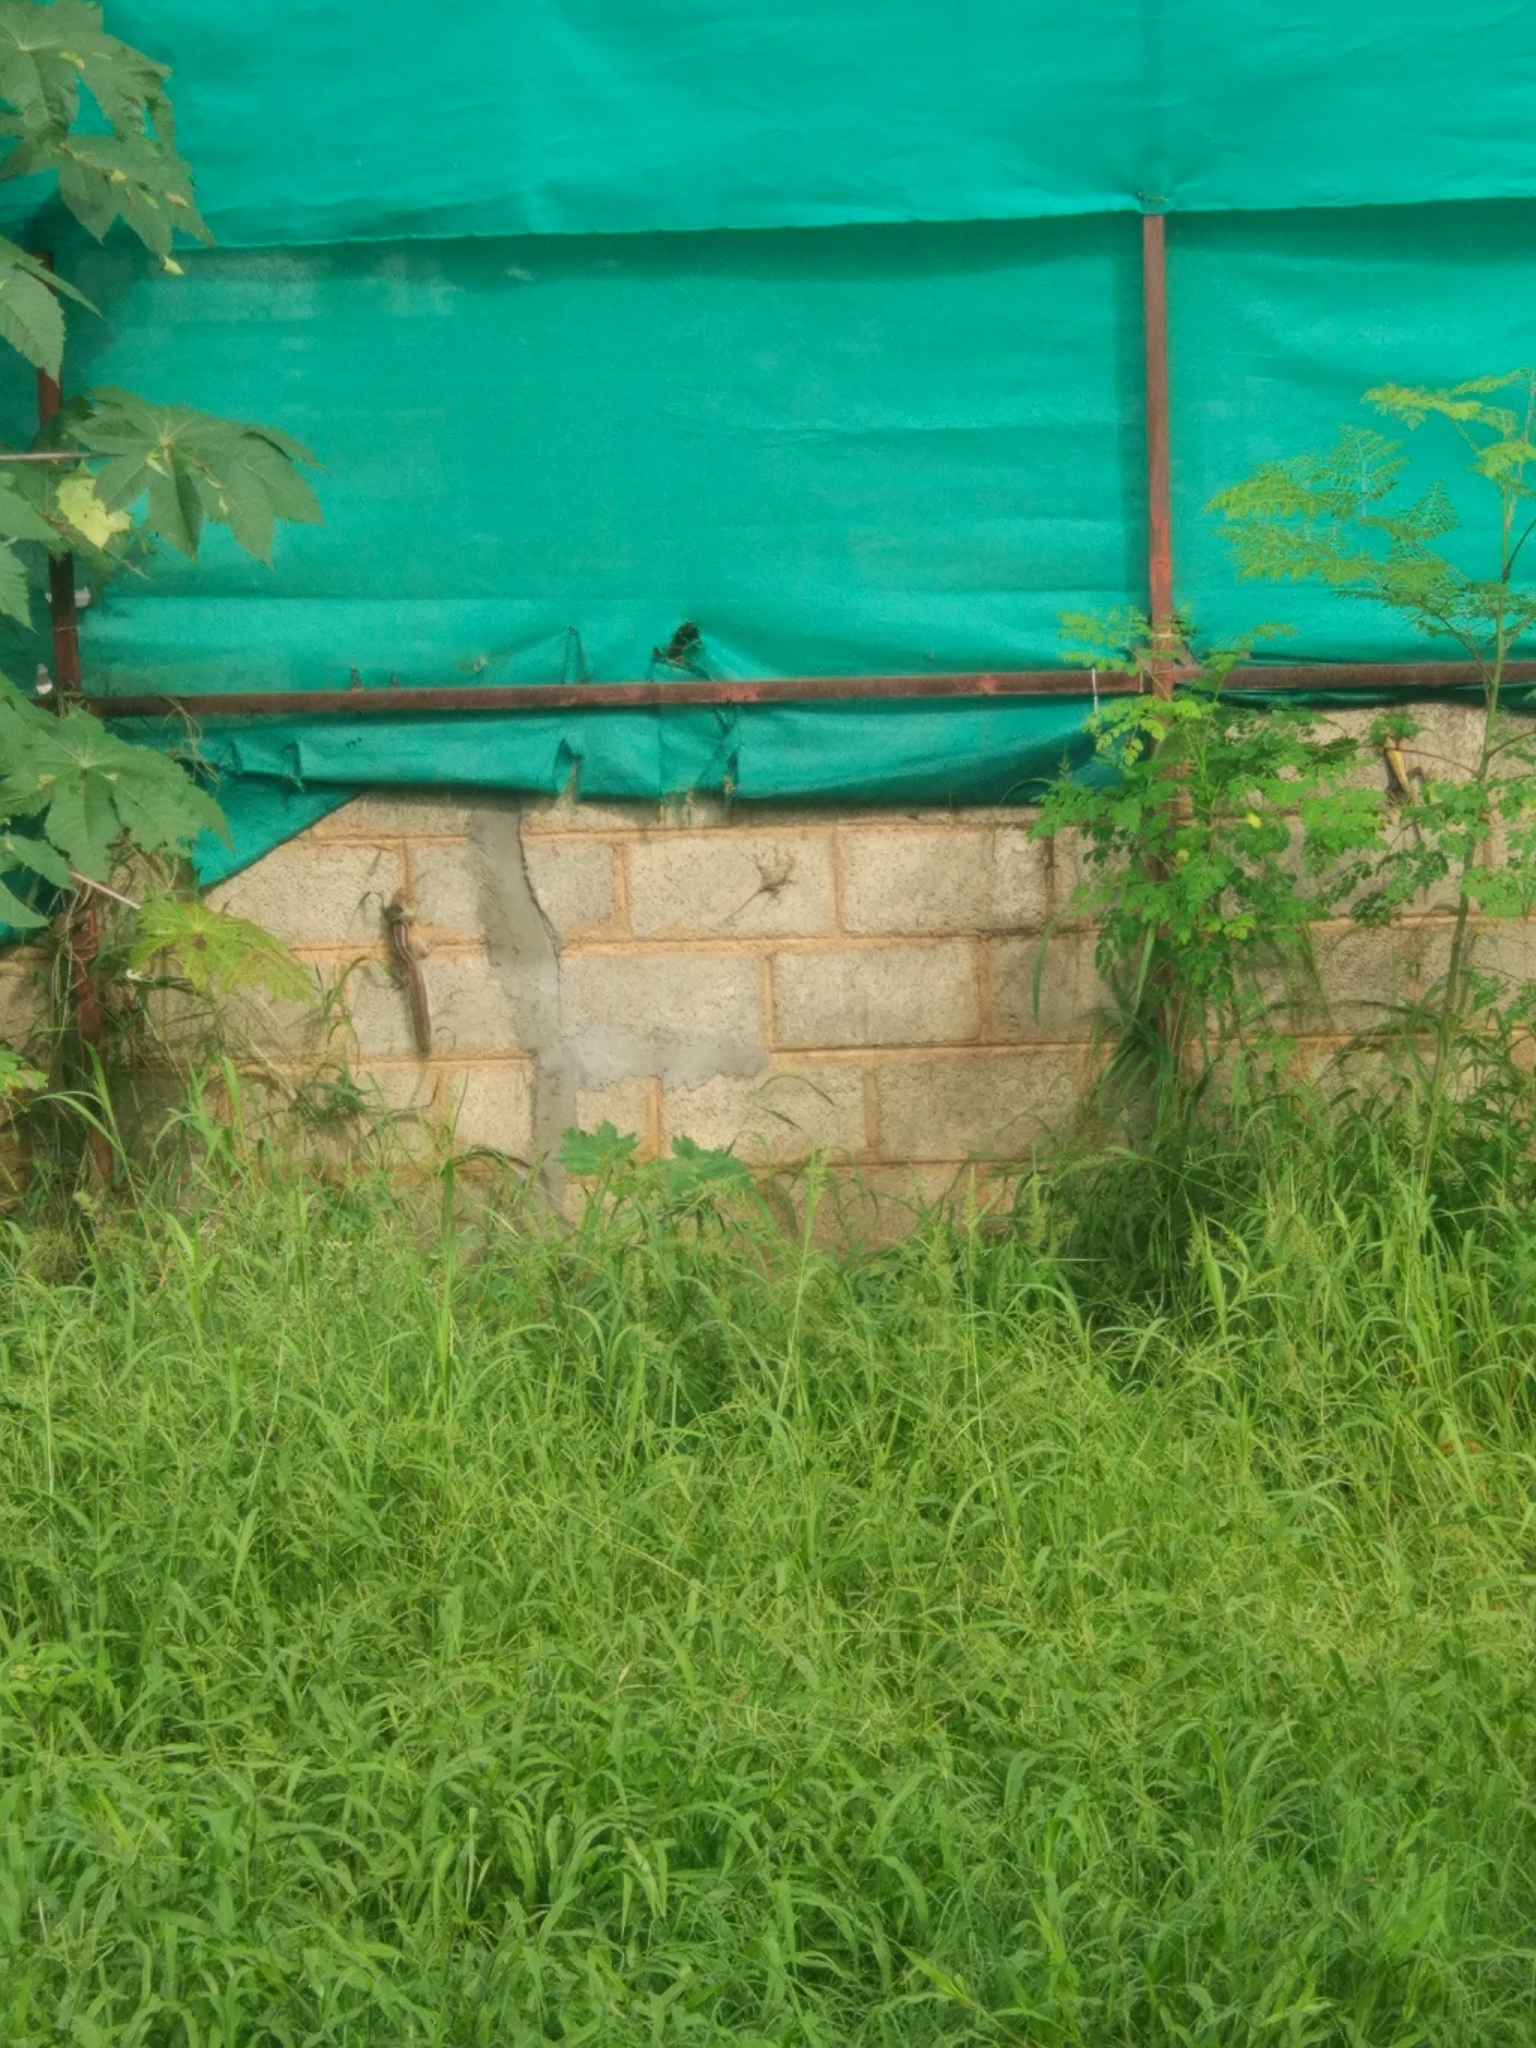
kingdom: Animalia
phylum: Chordata
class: Mammalia
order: Rodentia
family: Sciuridae
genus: Funambulus
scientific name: Funambulus palmarum
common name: Indian palm squirrel
